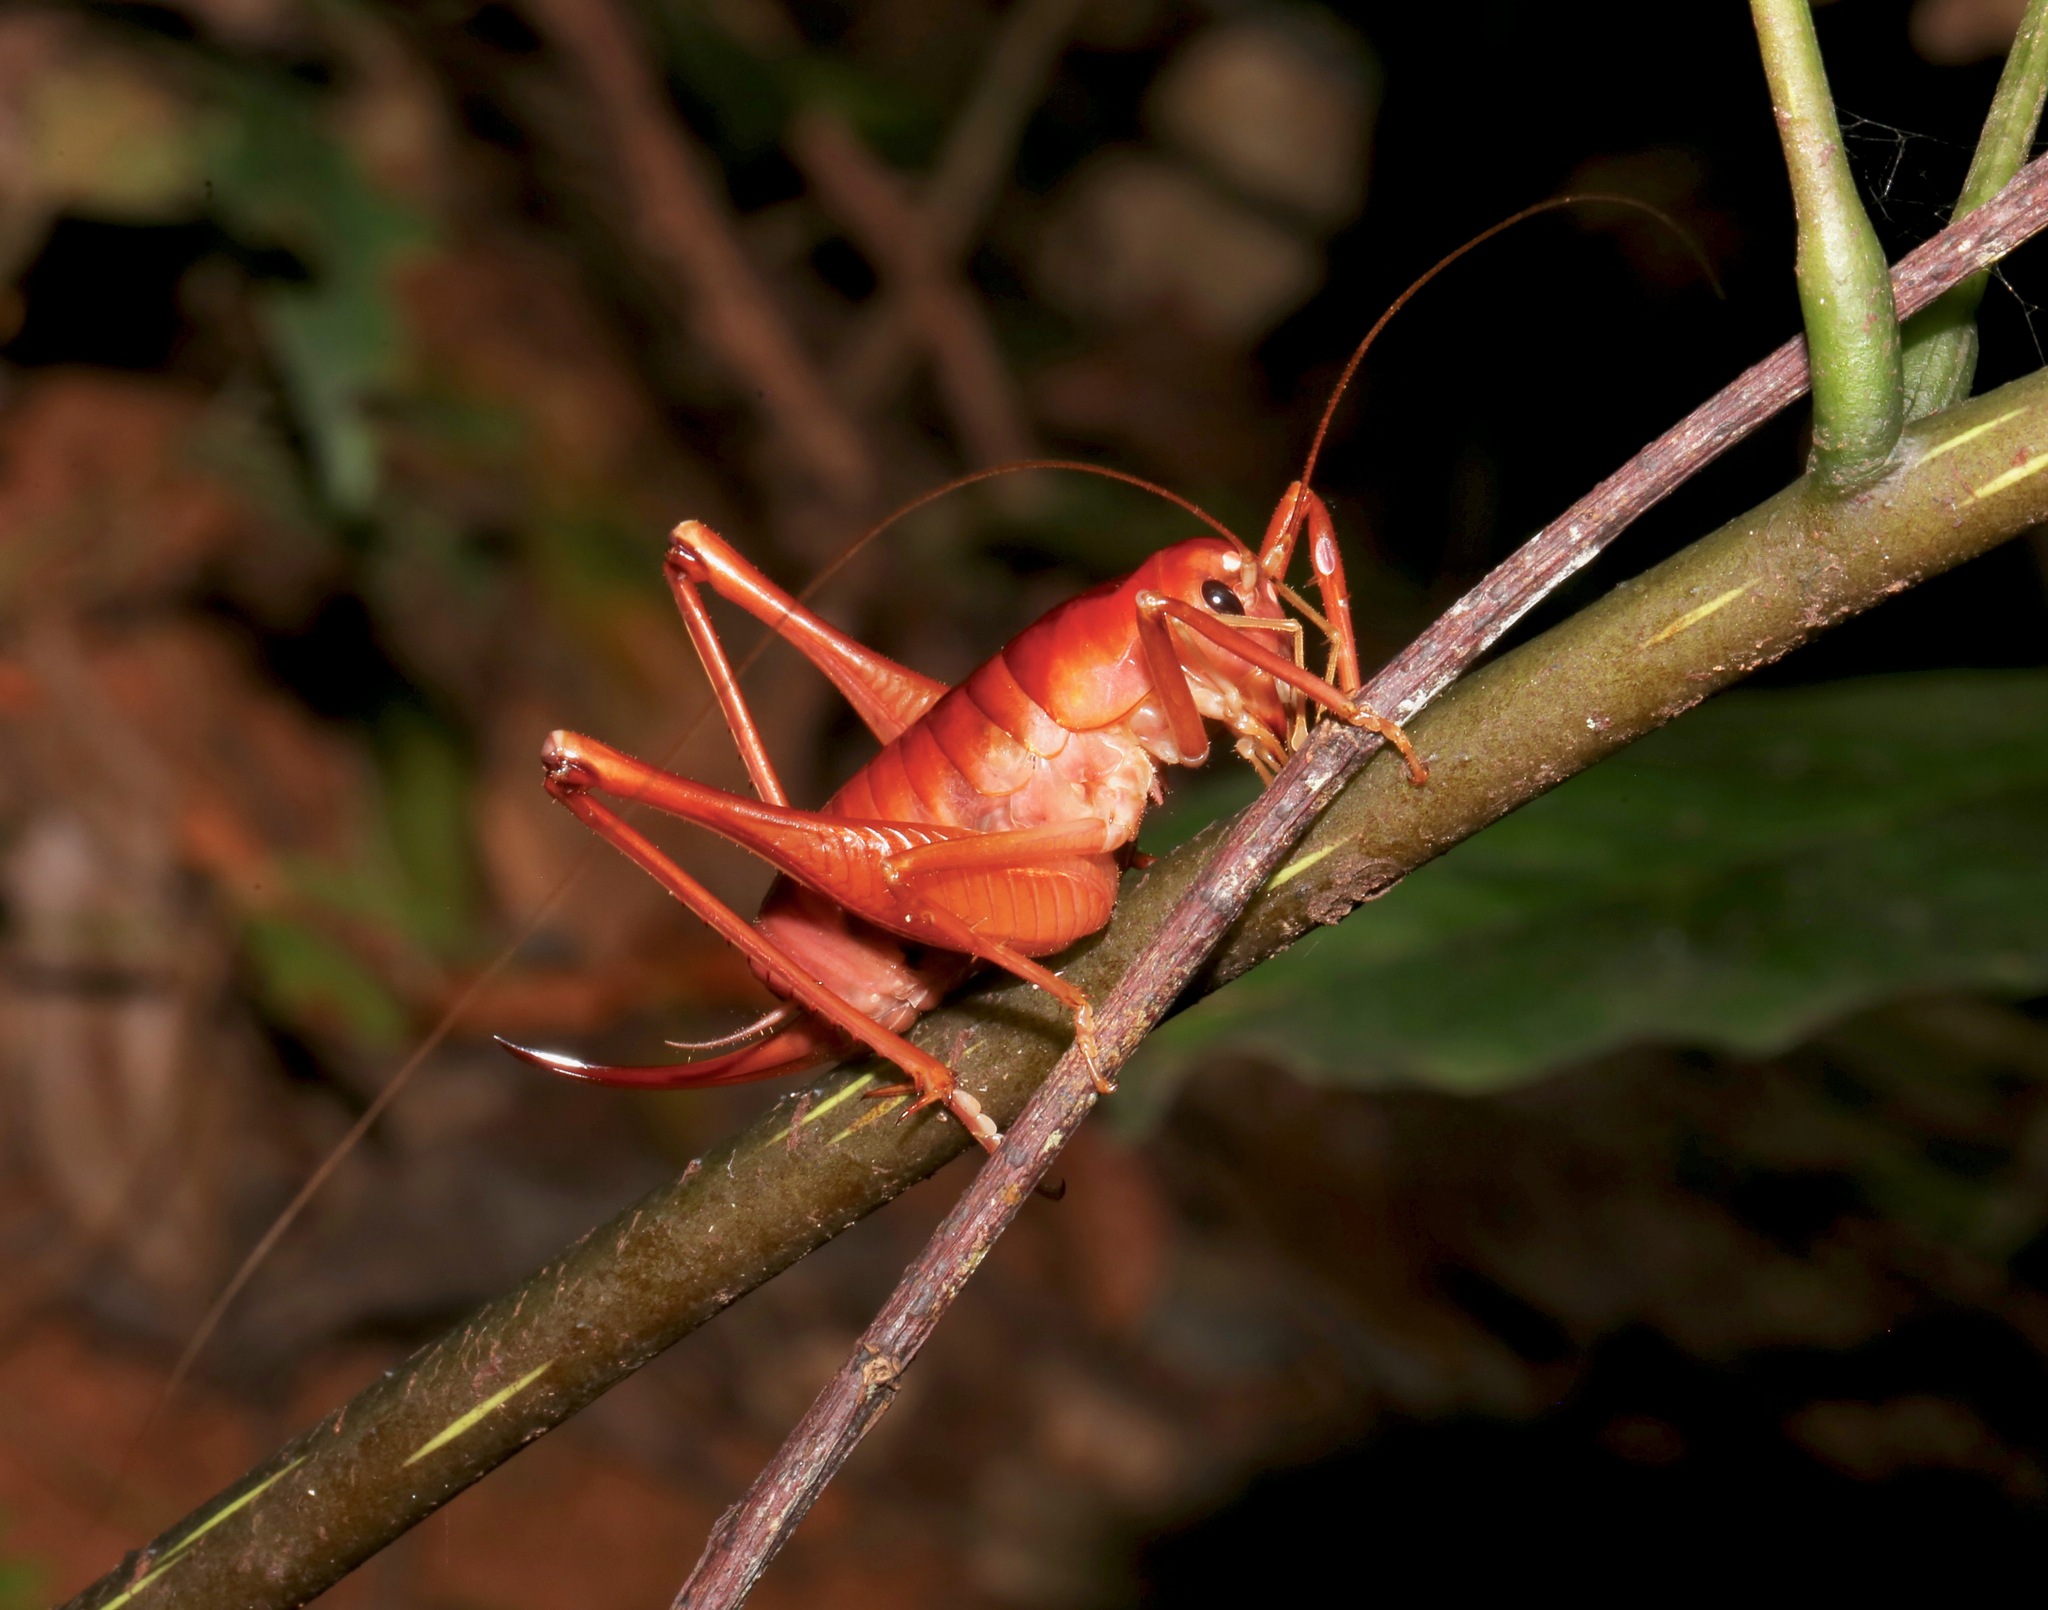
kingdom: Animalia
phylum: Arthropoda
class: Insecta
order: Orthoptera
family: Anostostomatidae
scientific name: Anostostomatidae
